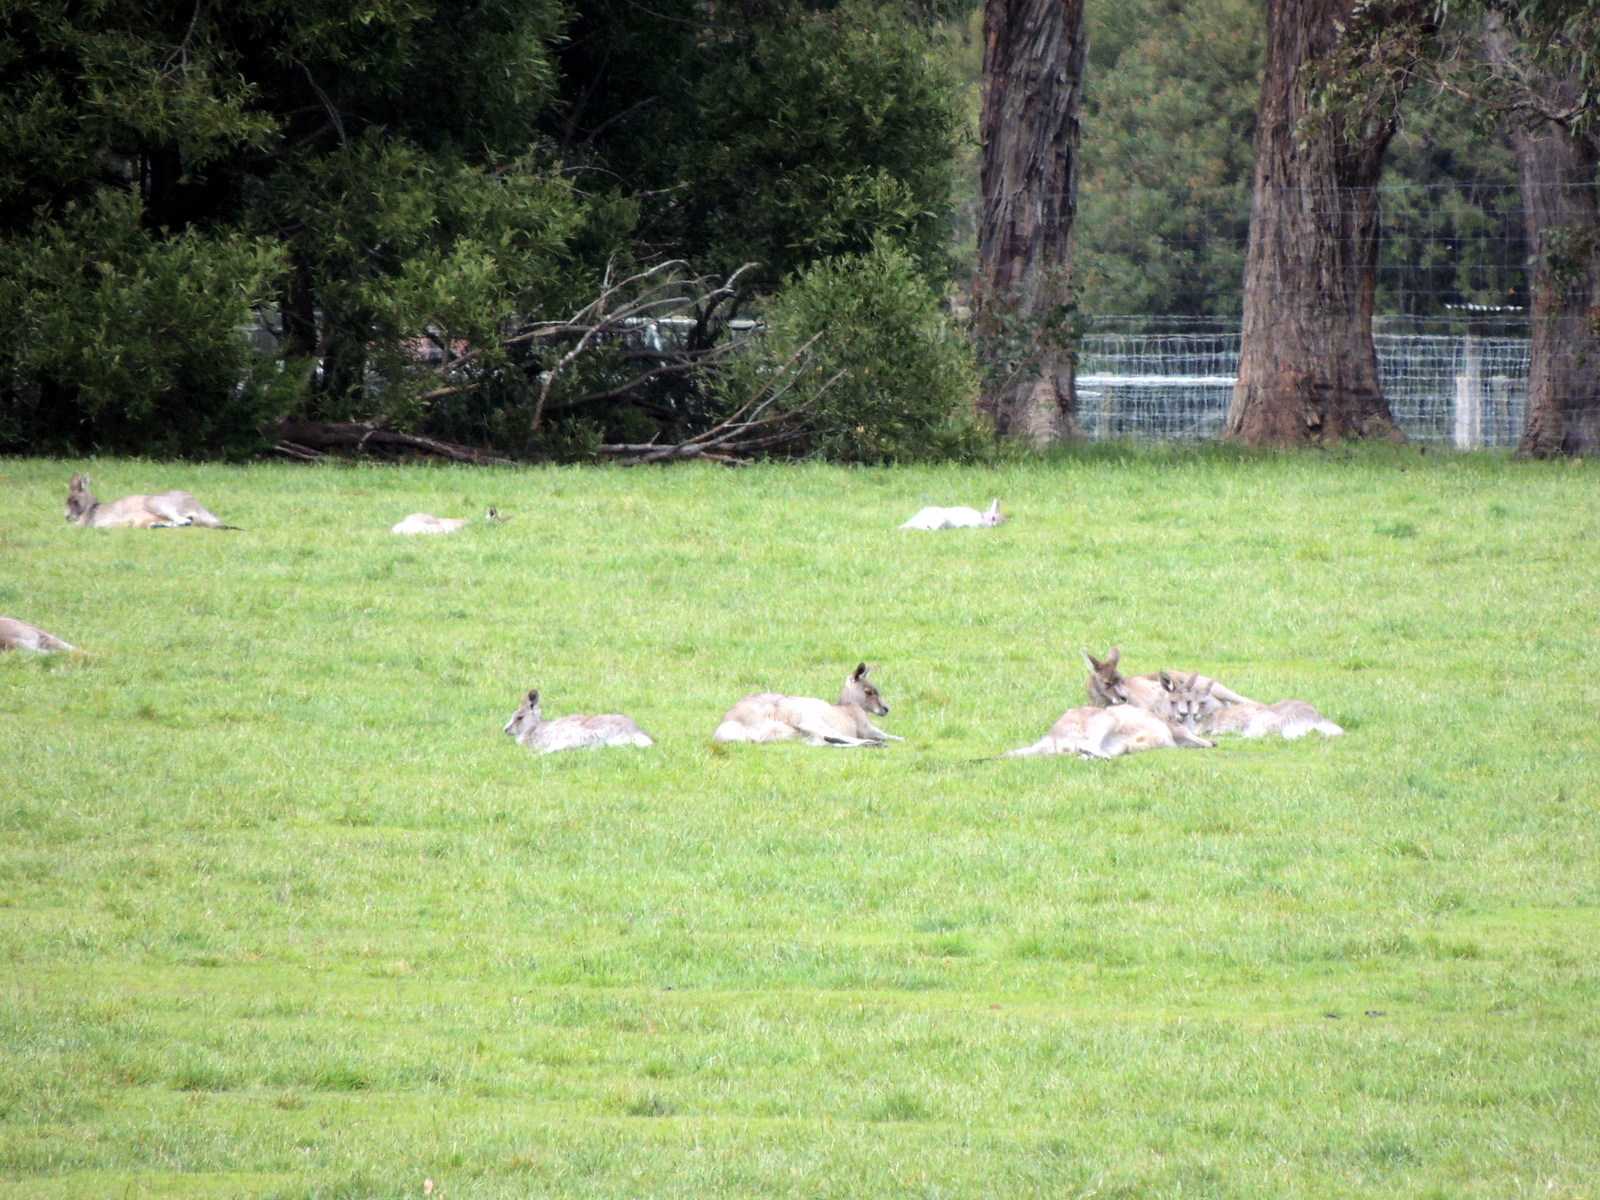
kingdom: Animalia
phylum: Chordata
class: Mammalia
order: Diprotodontia
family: Macropodidae
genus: Macropus
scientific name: Macropus giganteus
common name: Eastern grey kangaroo
